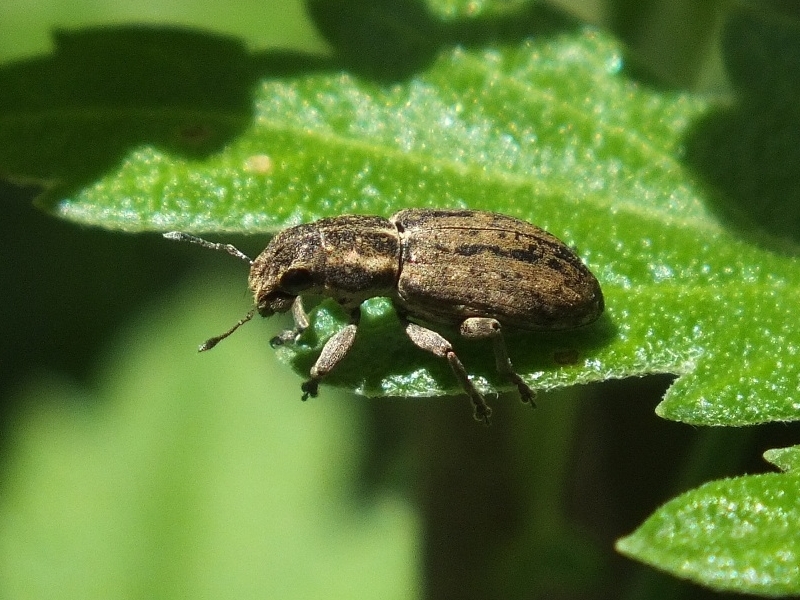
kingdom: Animalia
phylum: Arthropoda
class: Insecta
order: Coleoptera
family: Curculionidae
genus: Sitona
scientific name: Sitona puncticollis
